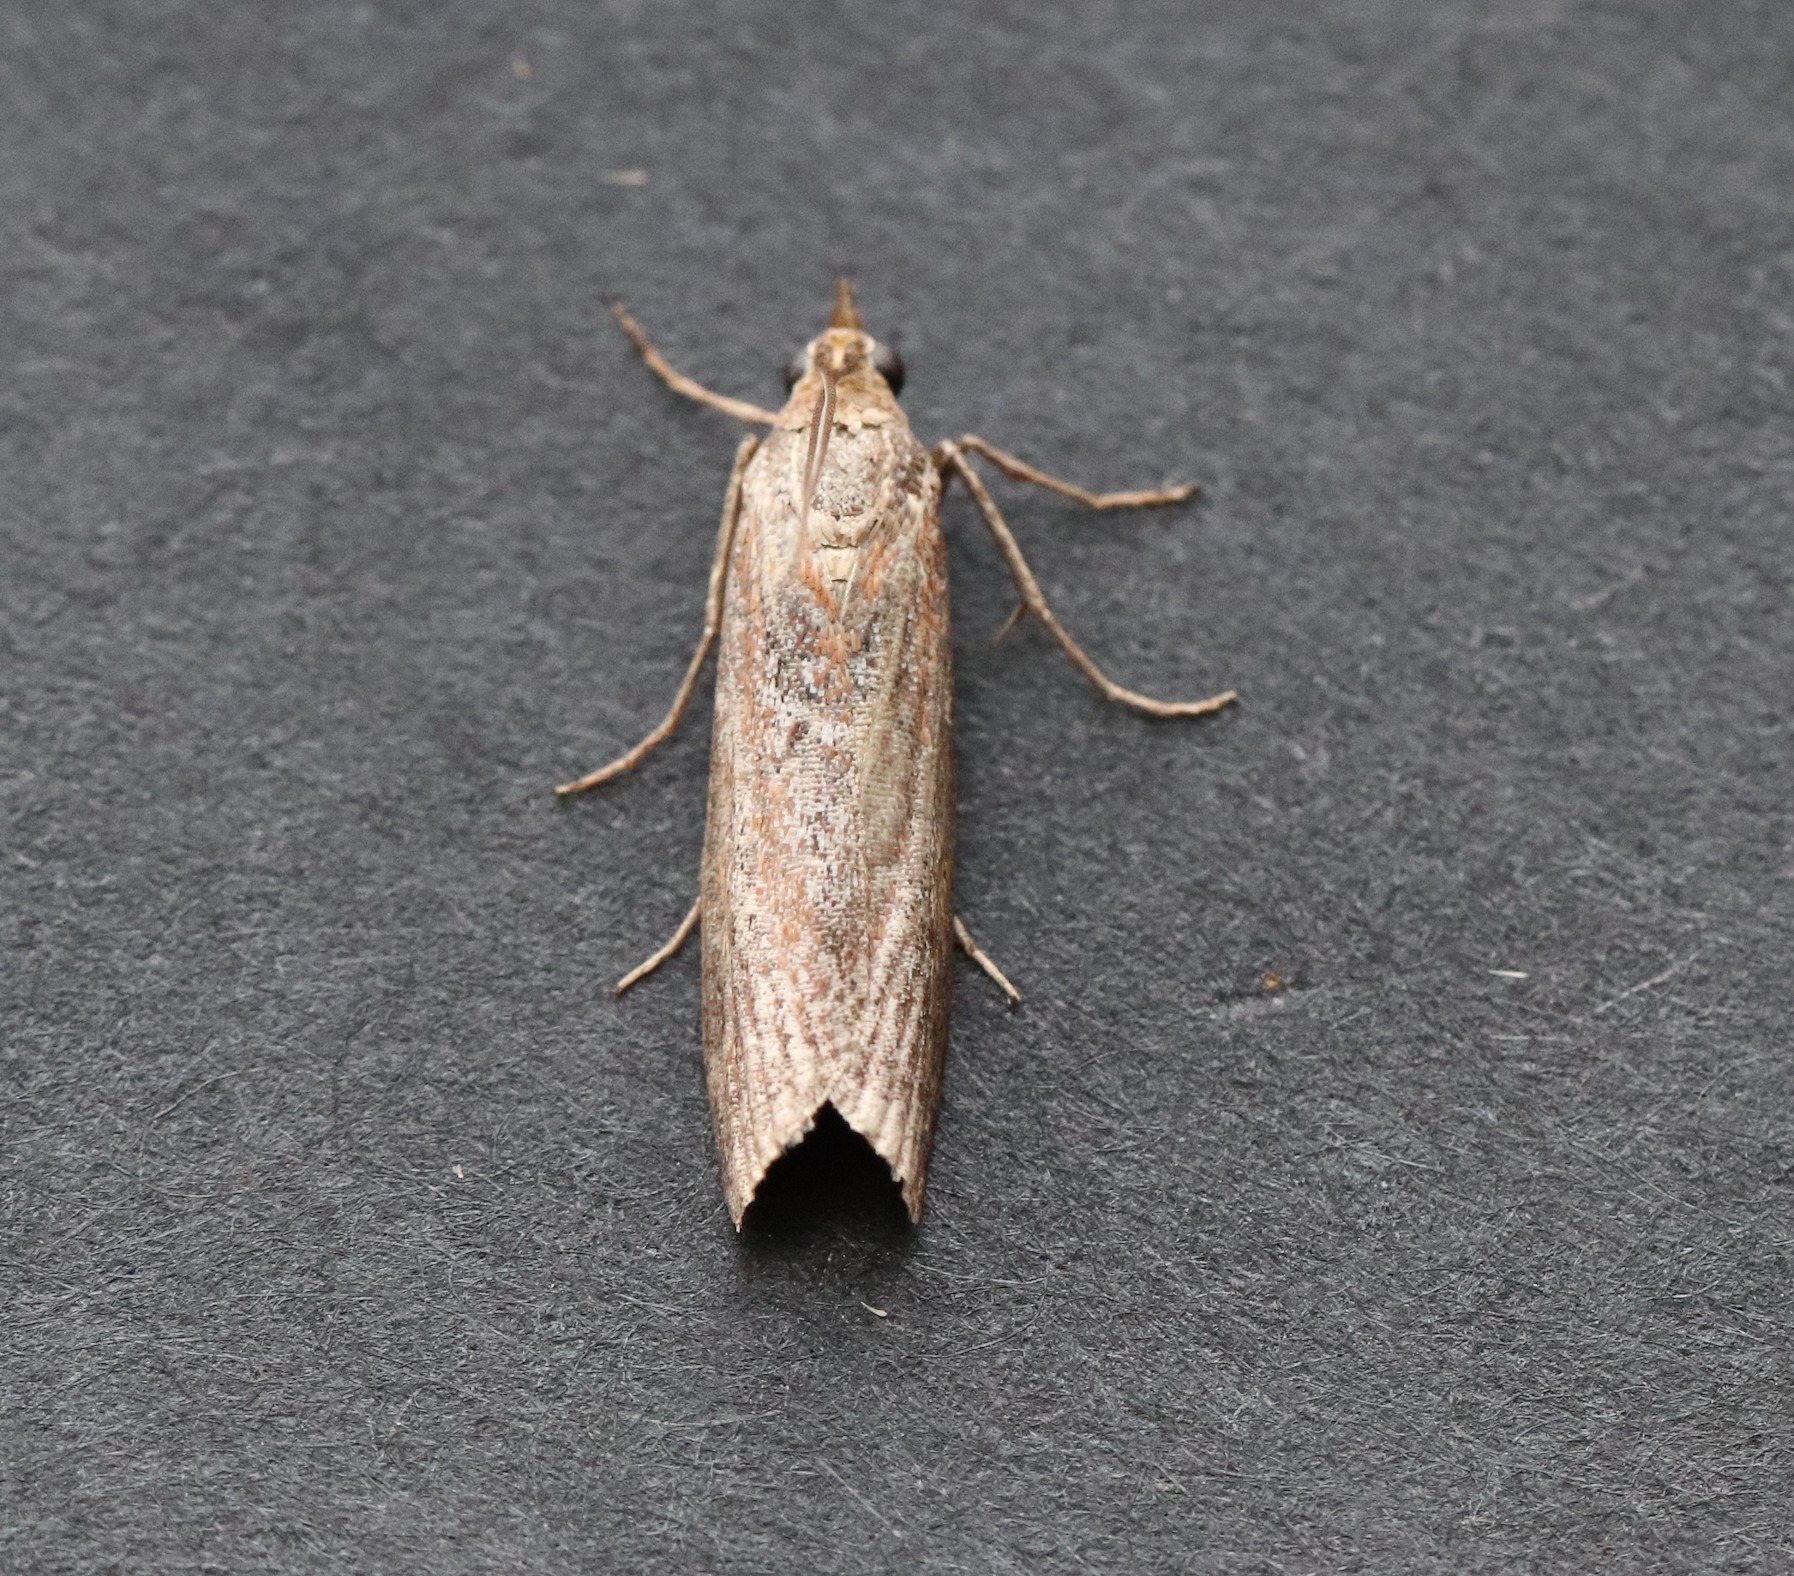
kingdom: Animalia
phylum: Arthropoda
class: Insecta
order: Lepidoptera
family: Pyralidae
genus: Selagia
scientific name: Selagia spadicella
